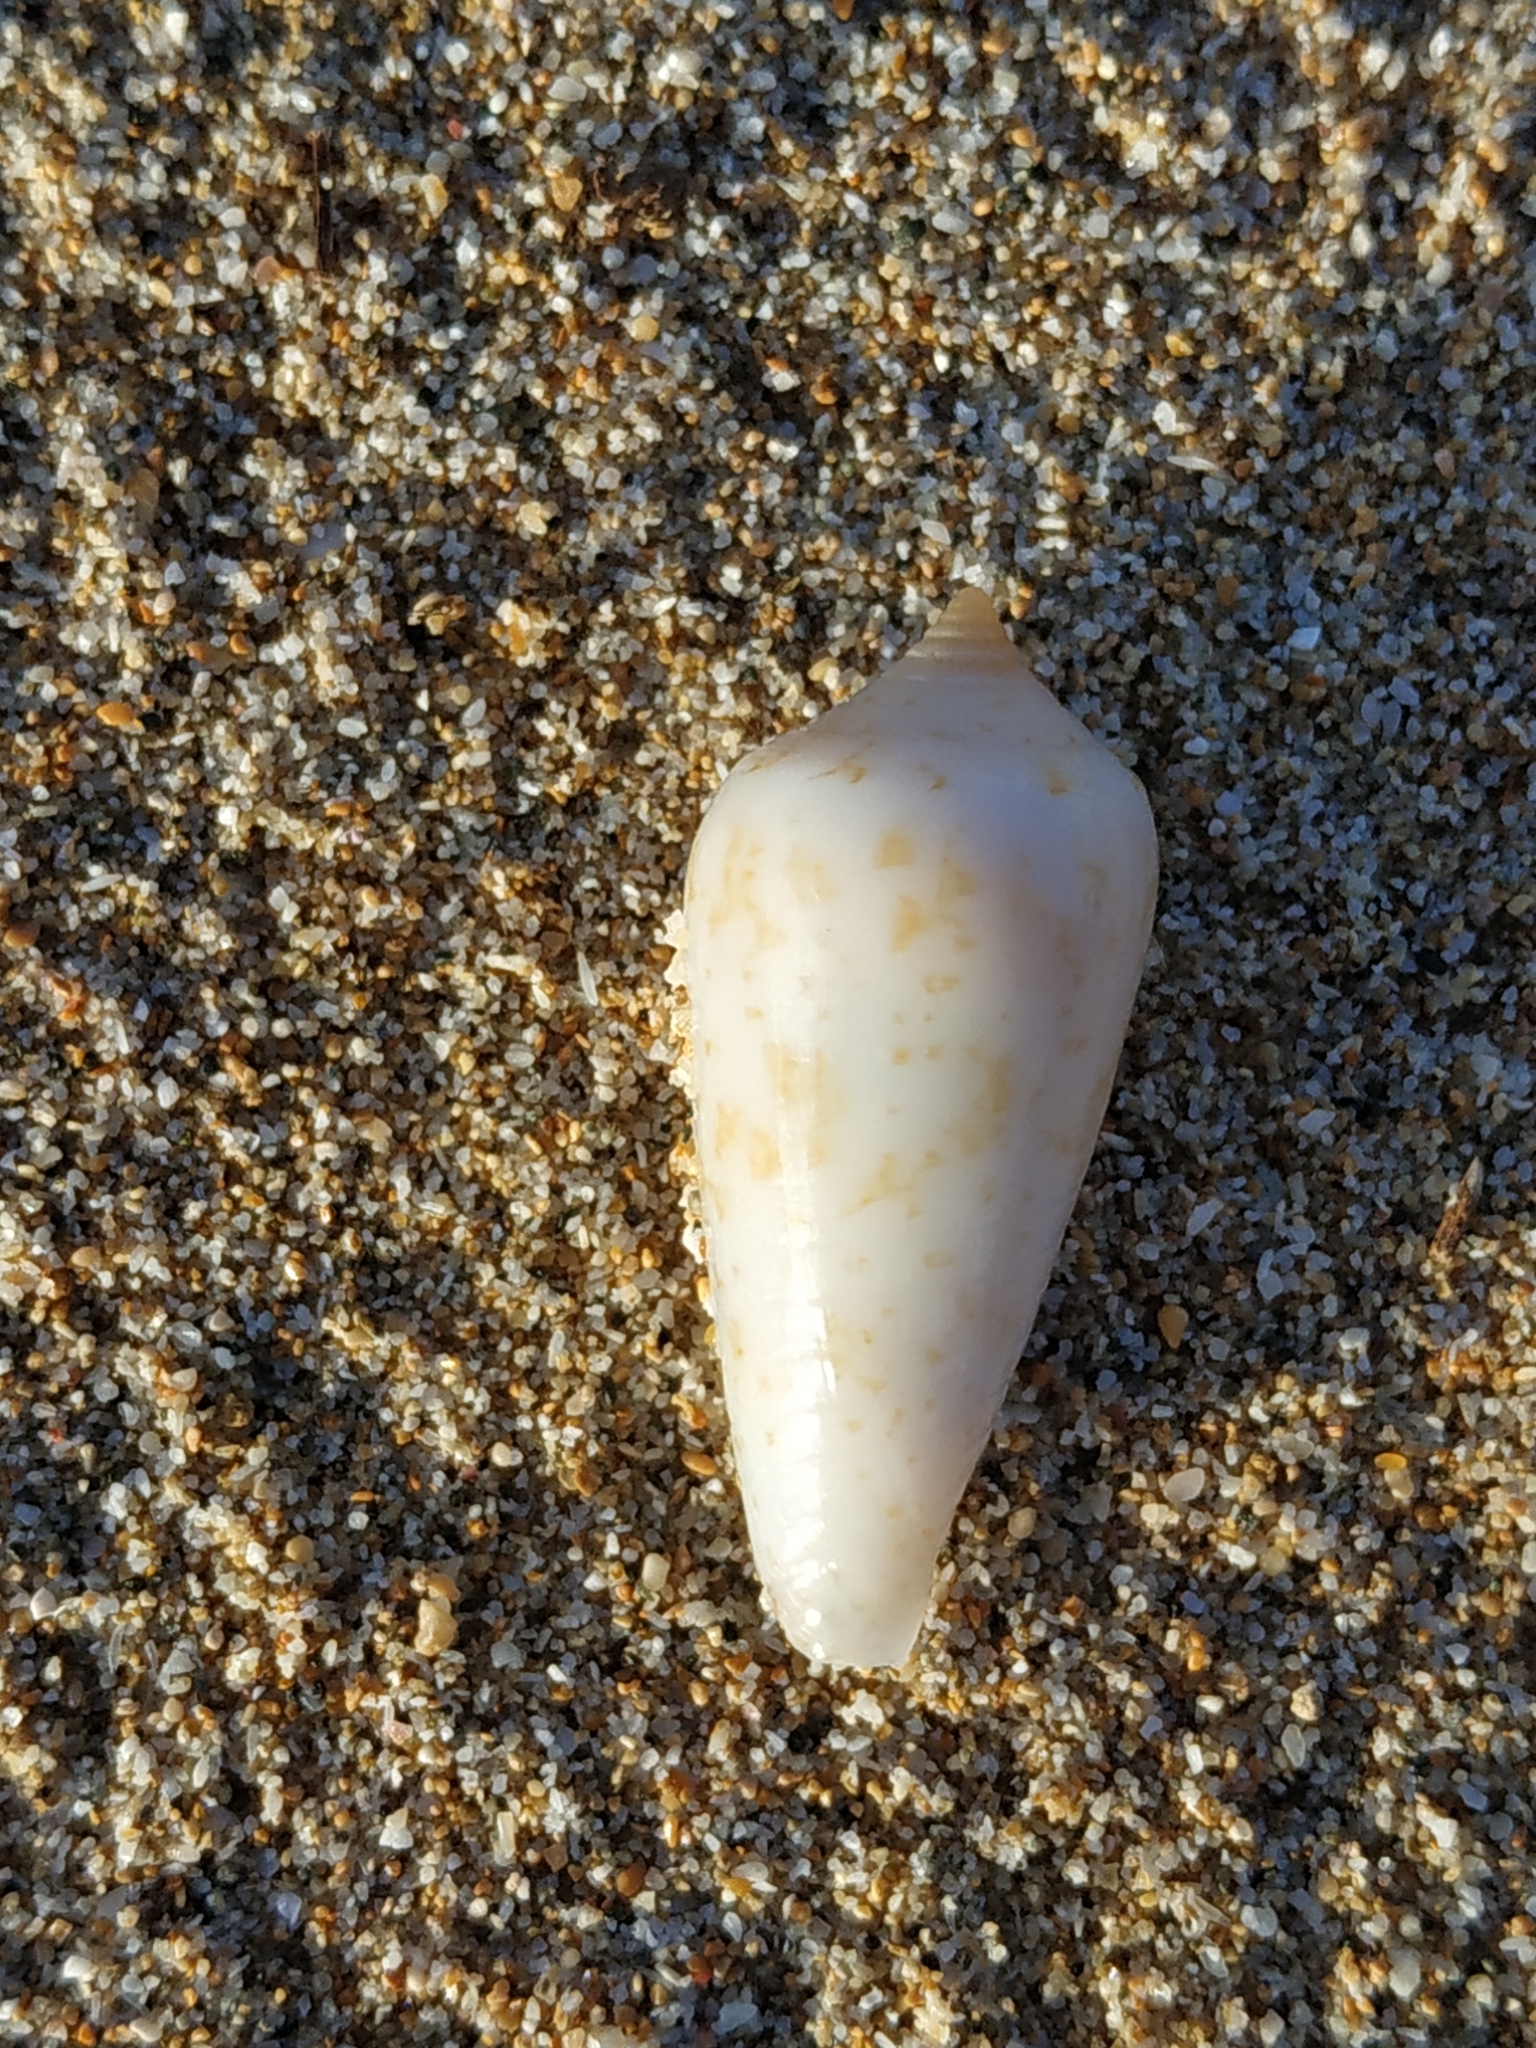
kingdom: Animalia
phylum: Mollusca
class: Gastropoda
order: Neogastropoda
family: Conidae
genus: Conus
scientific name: Conus cinereus
